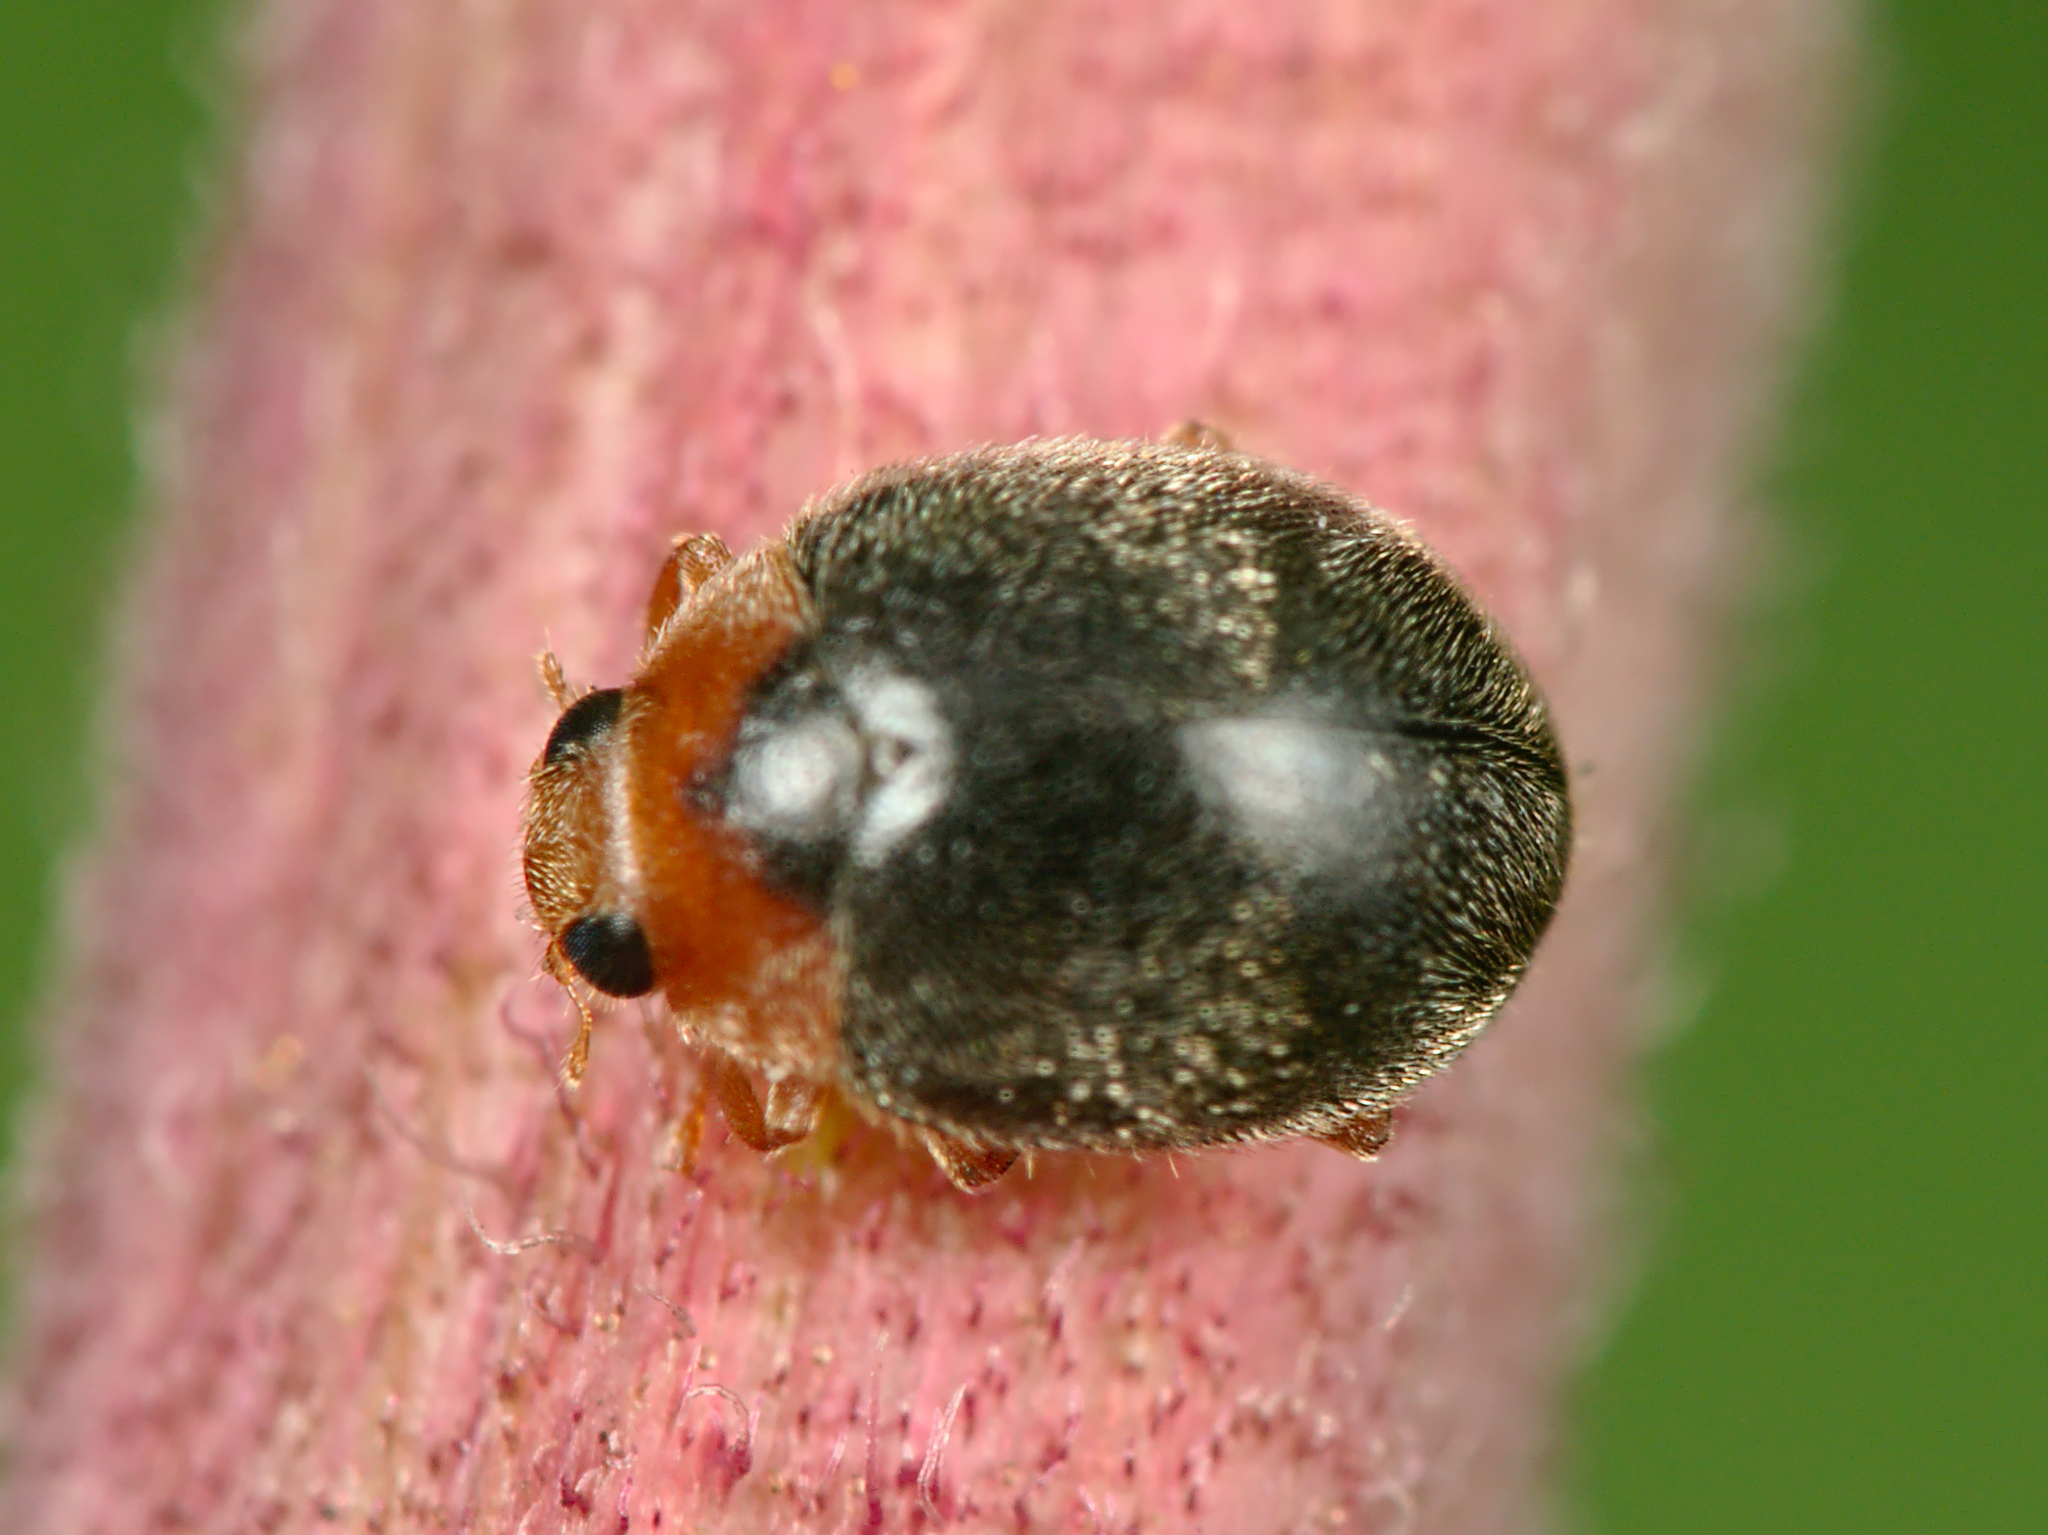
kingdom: Animalia
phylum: Arthropoda
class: Insecta
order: Coleoptera
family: Coccinellidae
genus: Scymnus
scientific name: Scymnus rubromaculatus
